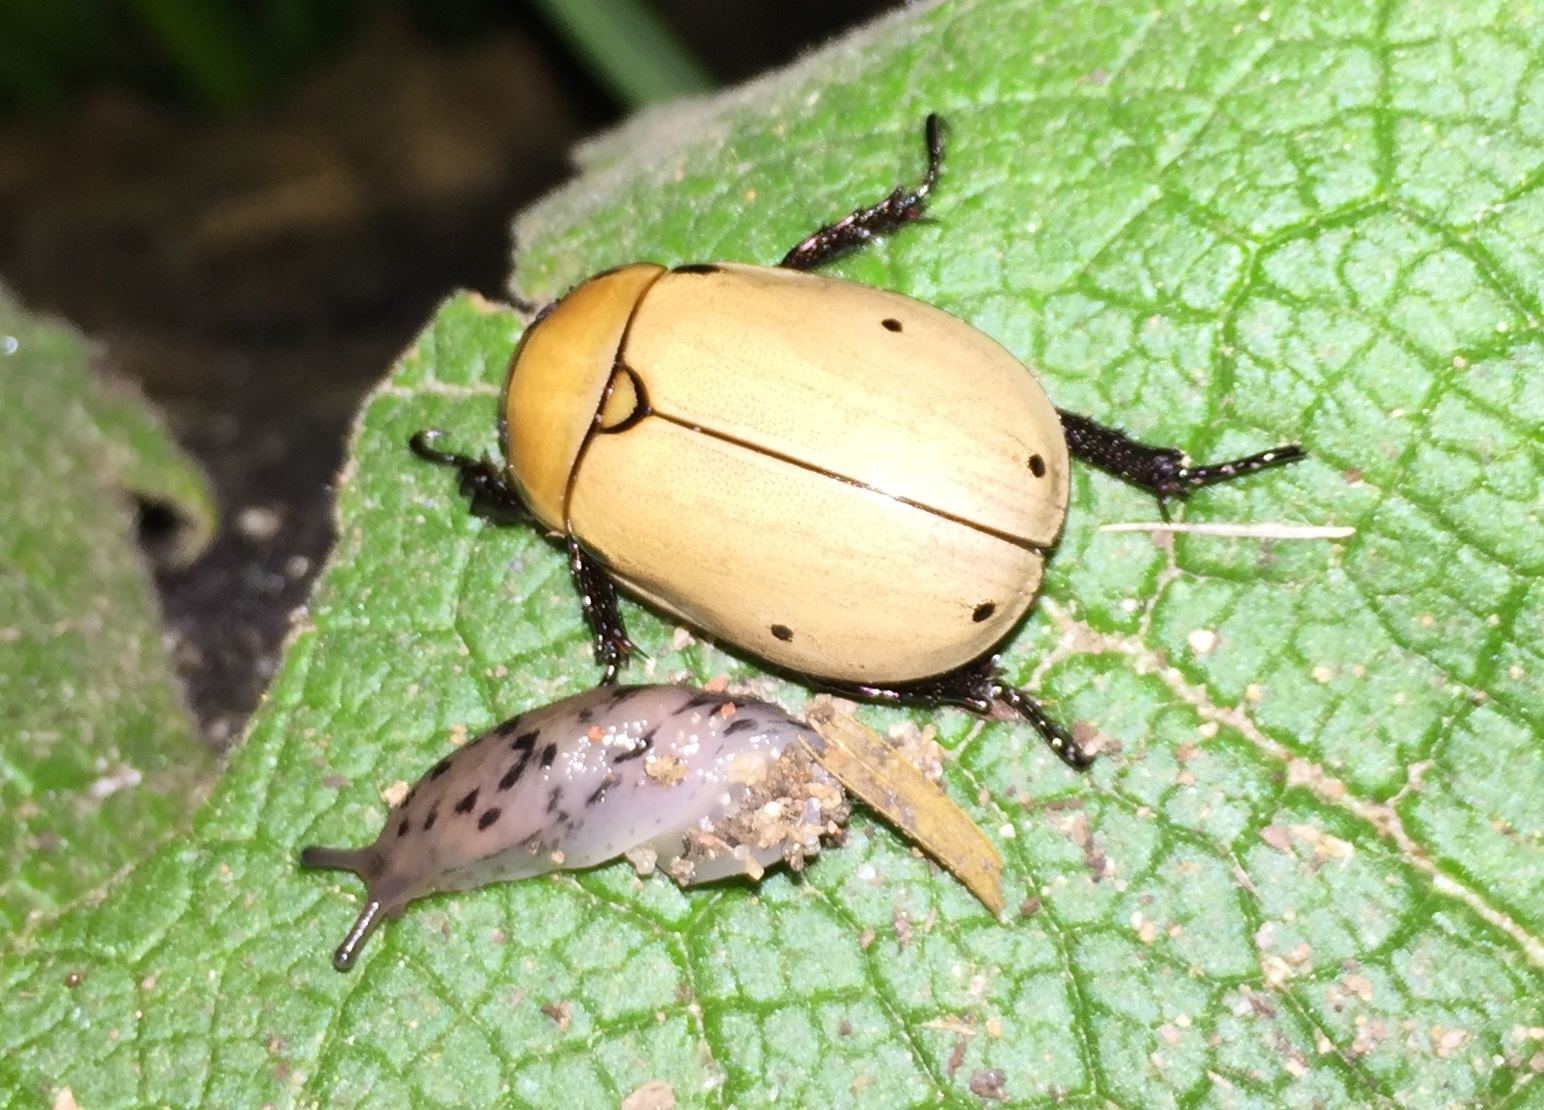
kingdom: Animalia
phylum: Arthropoda
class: Insecta
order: Coleoptera
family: Scarabaeidae
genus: Pelidnota
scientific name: Pelidnota punctata
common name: Grapevine beetle
